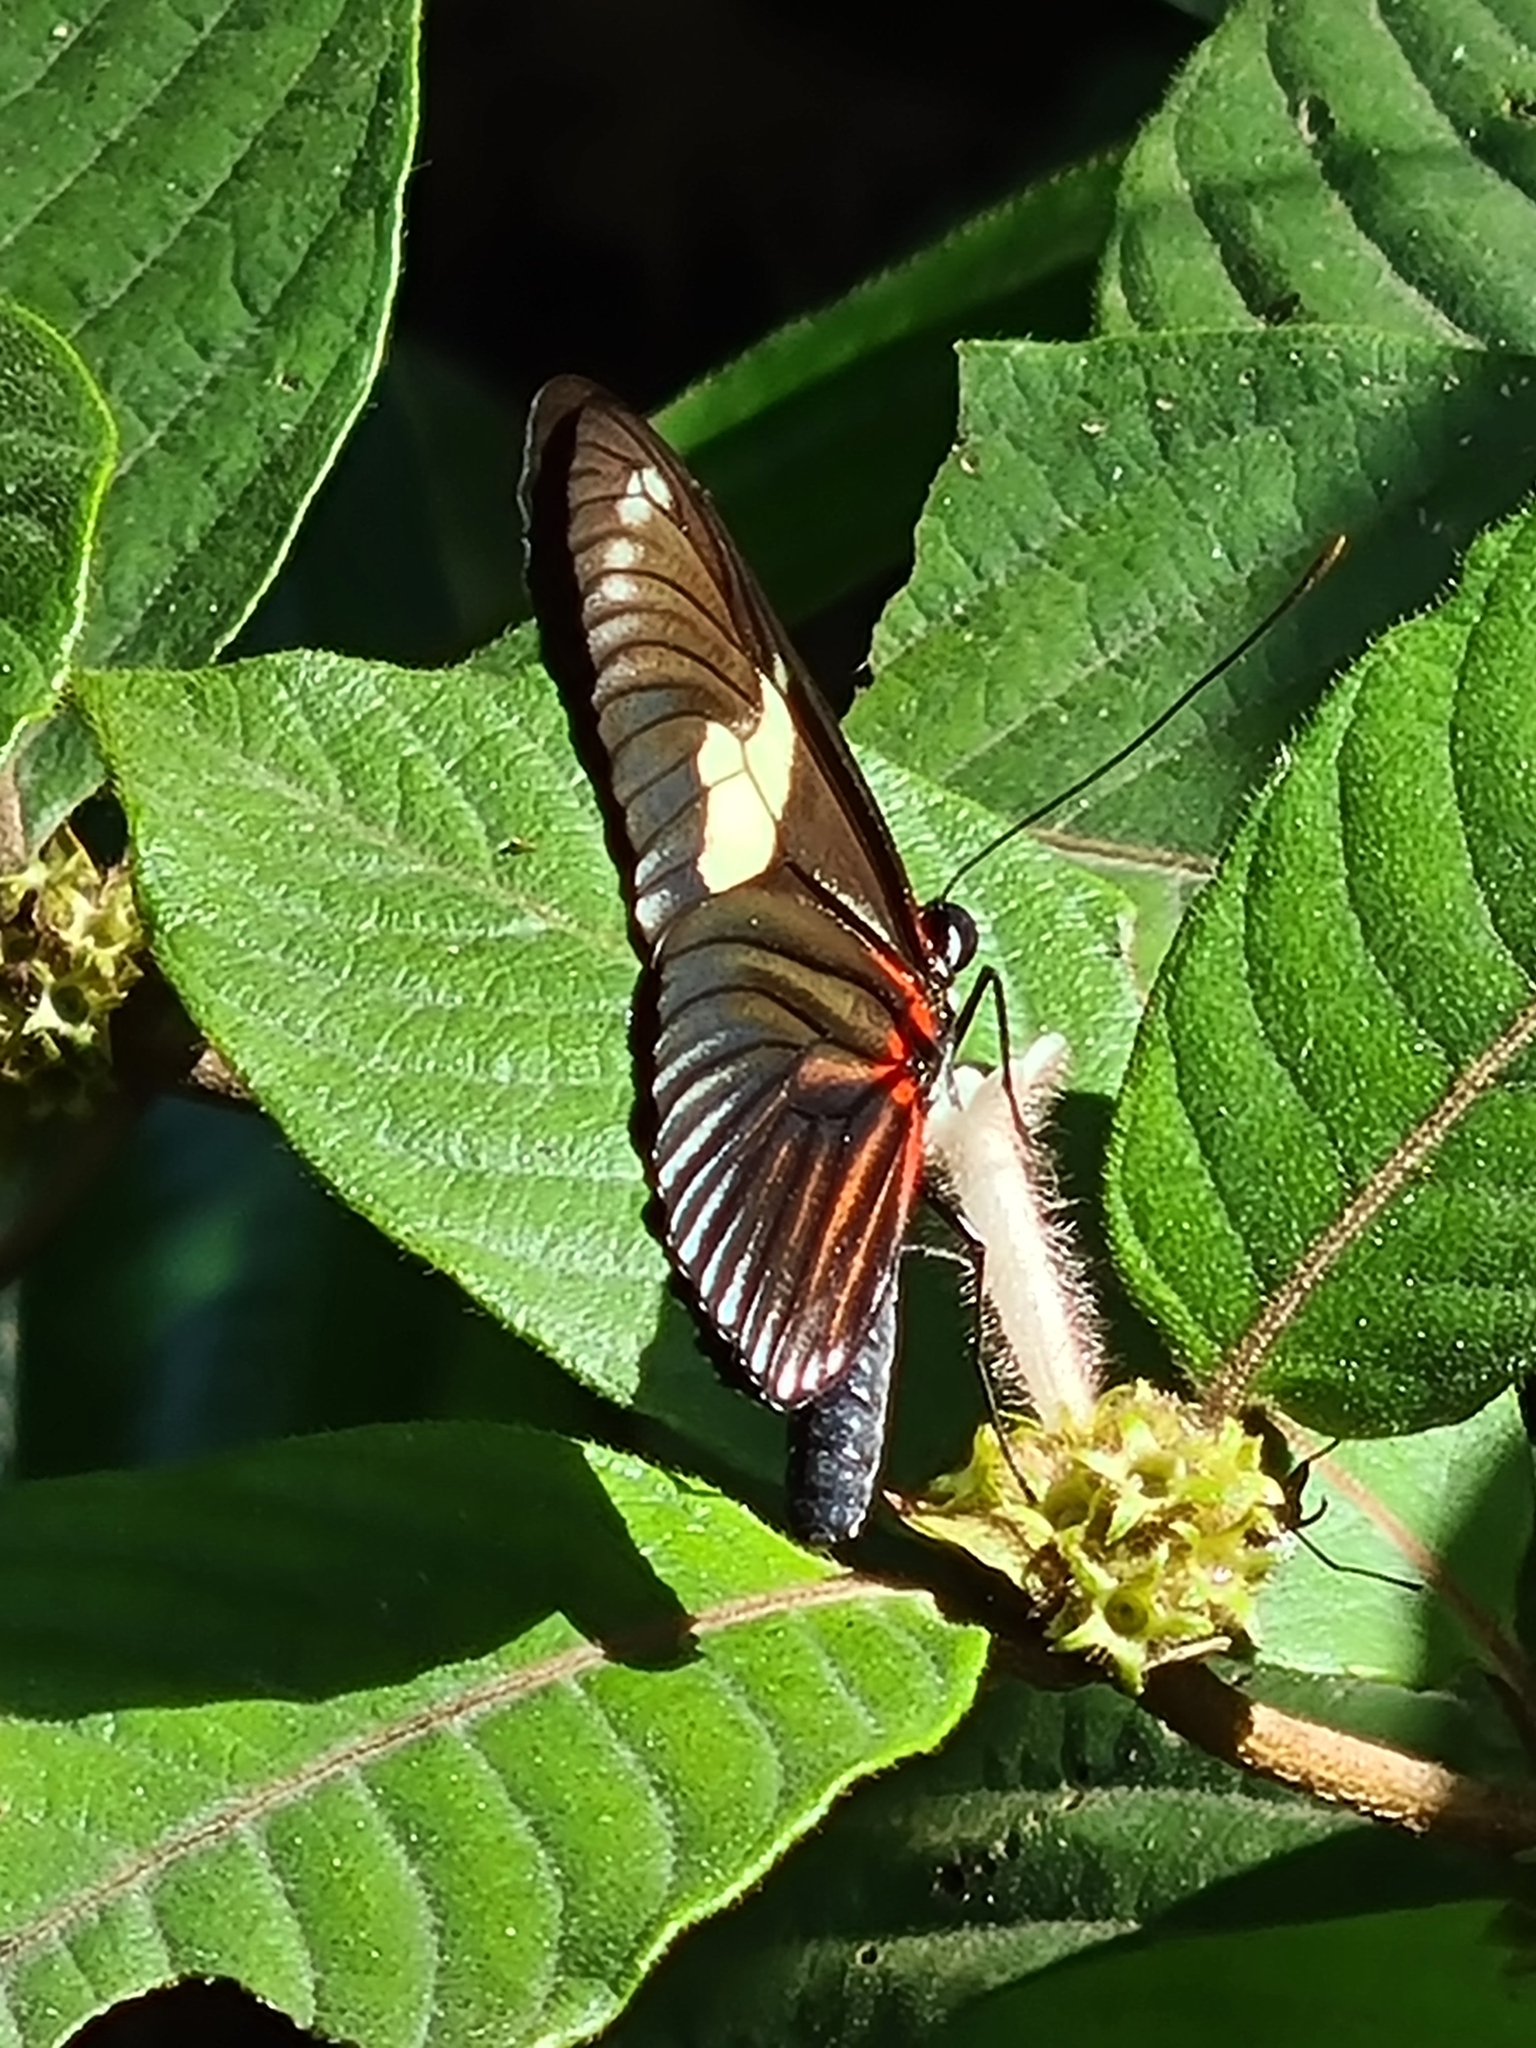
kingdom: Animalia
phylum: Arthropoda
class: Insecta
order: Lepidoptera
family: Nymphalidae
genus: Heliconius
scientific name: Heliconius doris
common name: Doris longwing
